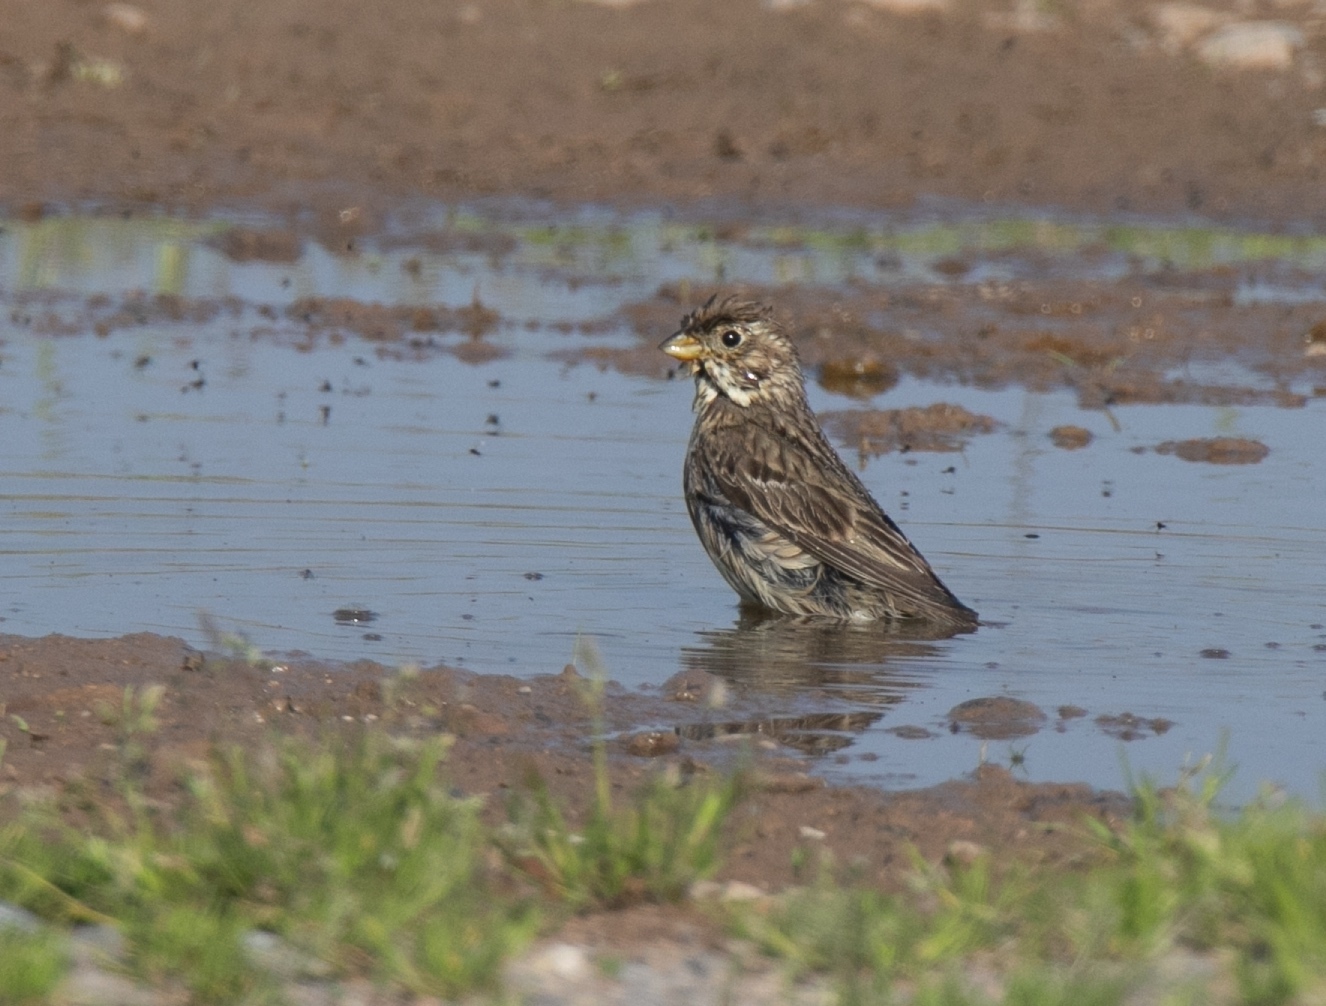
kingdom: Animalia
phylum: Chordata
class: Aves
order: Passeriformes
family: Emberizidae
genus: Emberiza
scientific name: Emberiza calandra
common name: Corn bunting
